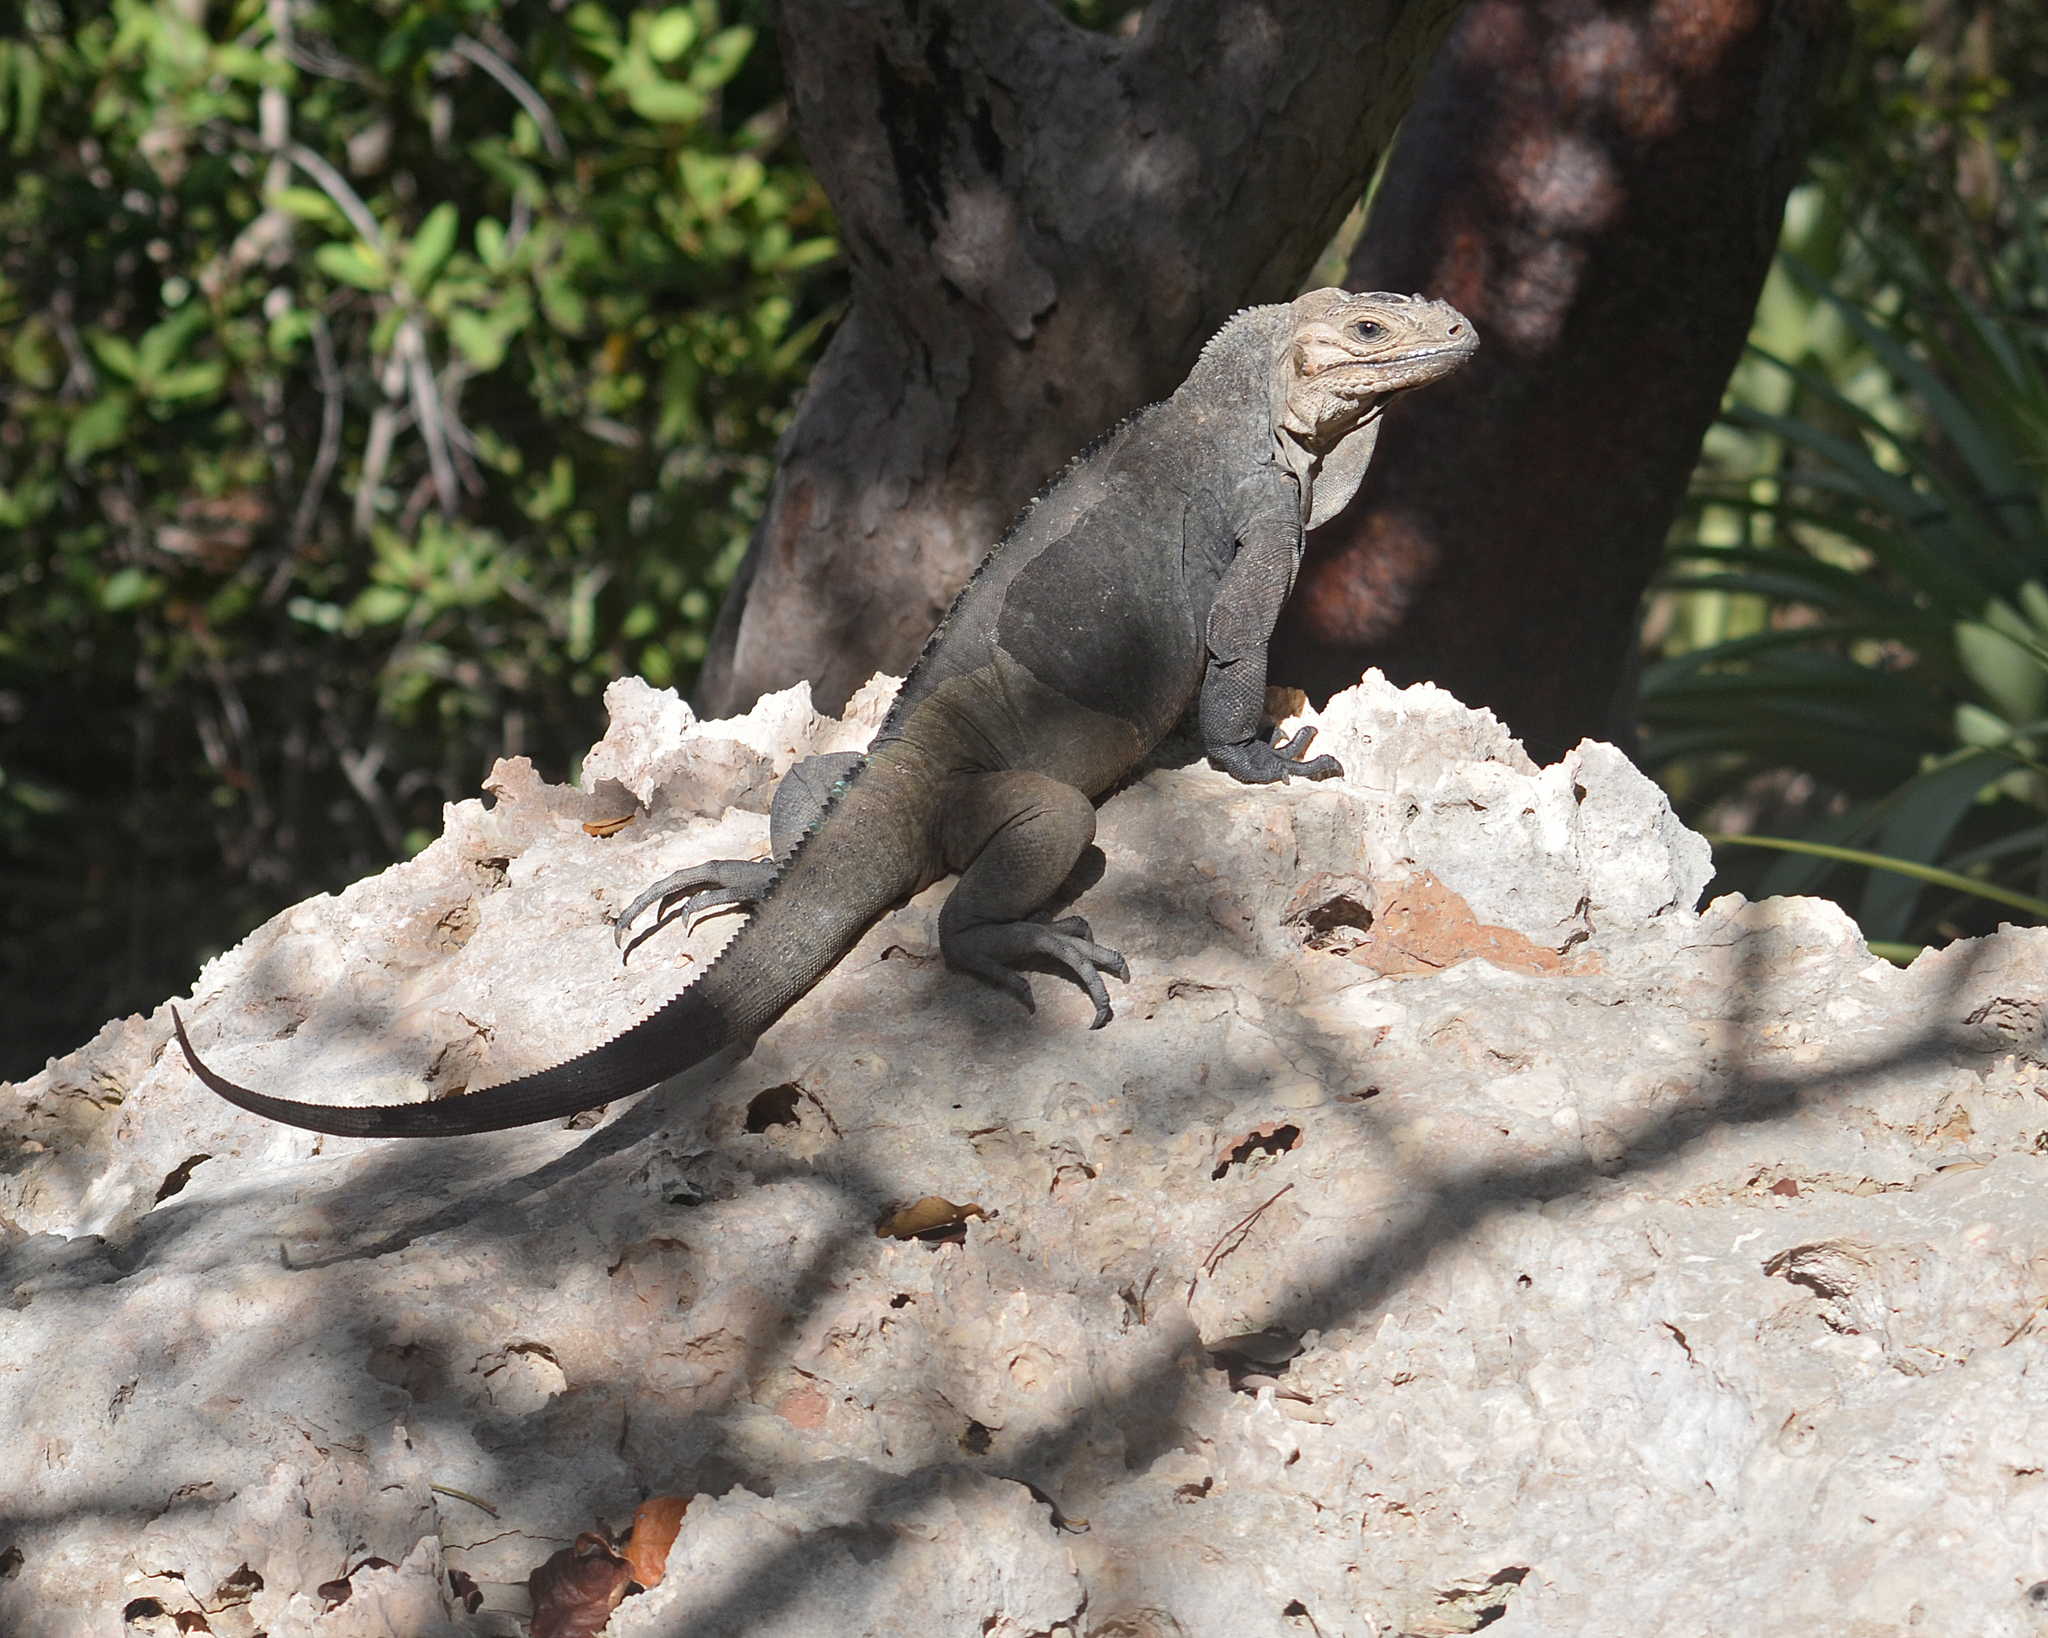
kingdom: Animalia
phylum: Chordata
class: Squamata
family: Iguanidae
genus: Cyclura
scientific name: Cyclura cornuta
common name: Hispaniolan rhinoceros iguana
